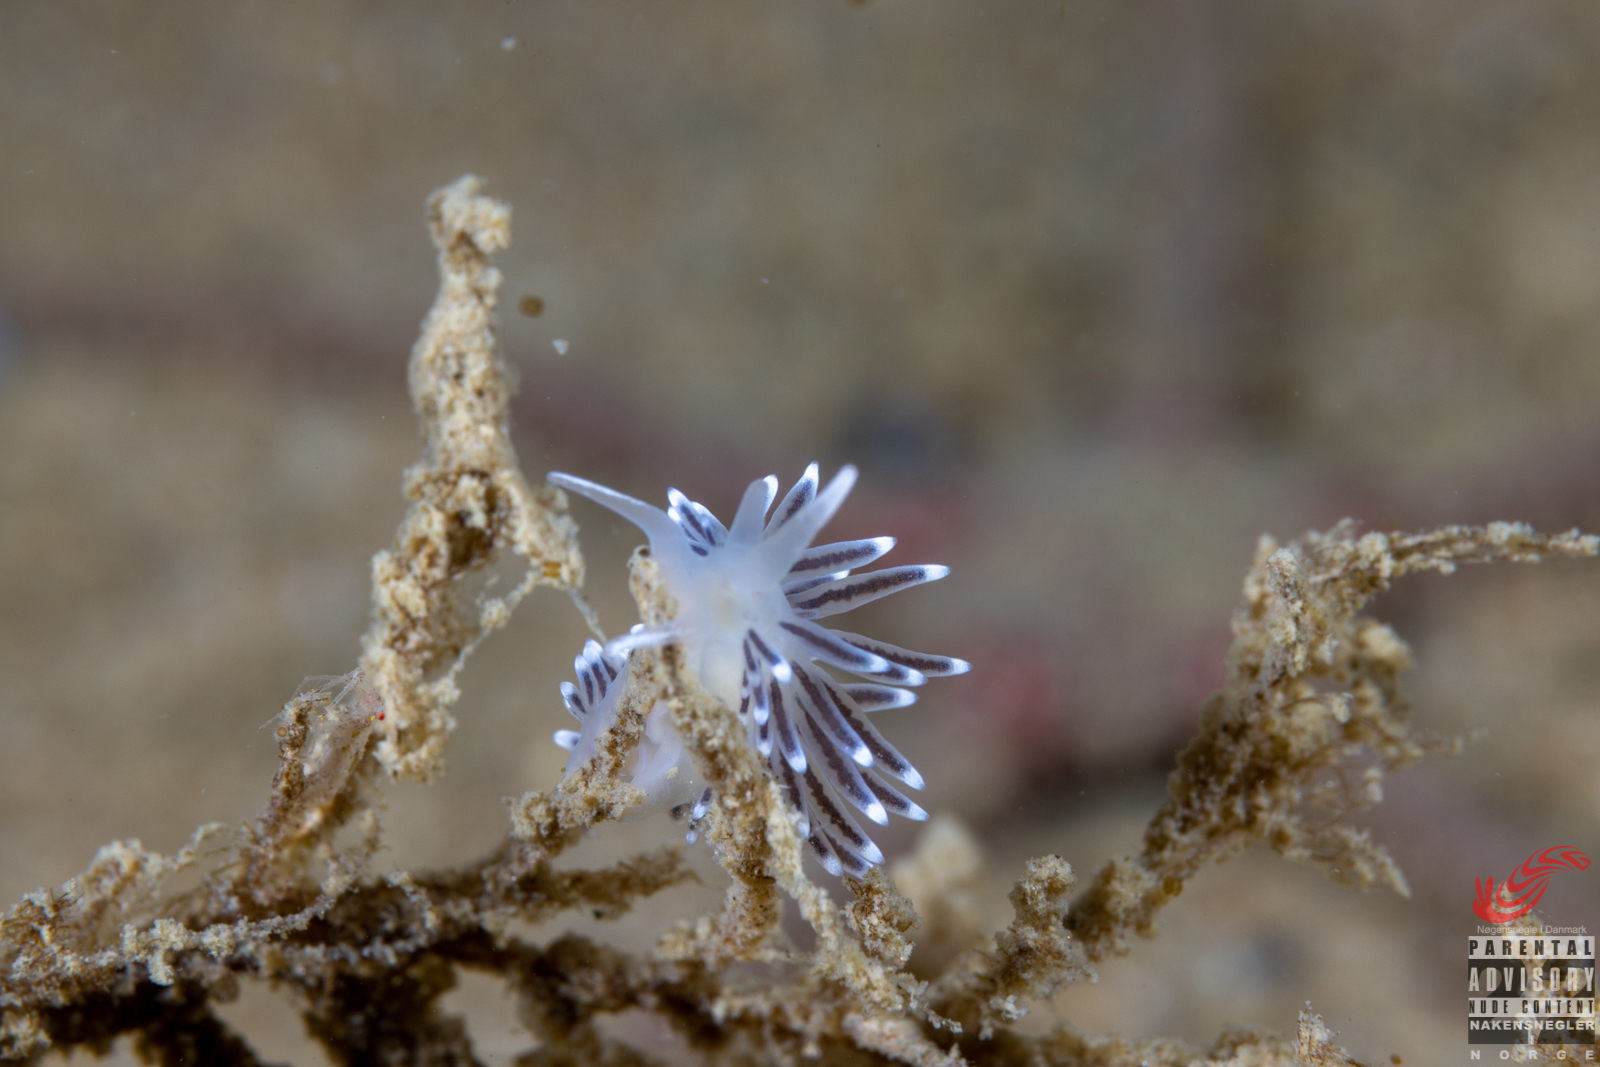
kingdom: Animalia
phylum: Mollusca
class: Gastropoda
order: Nudibranchia
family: Cuthonellidae
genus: Cuthonella
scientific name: Cuthonella concinna
